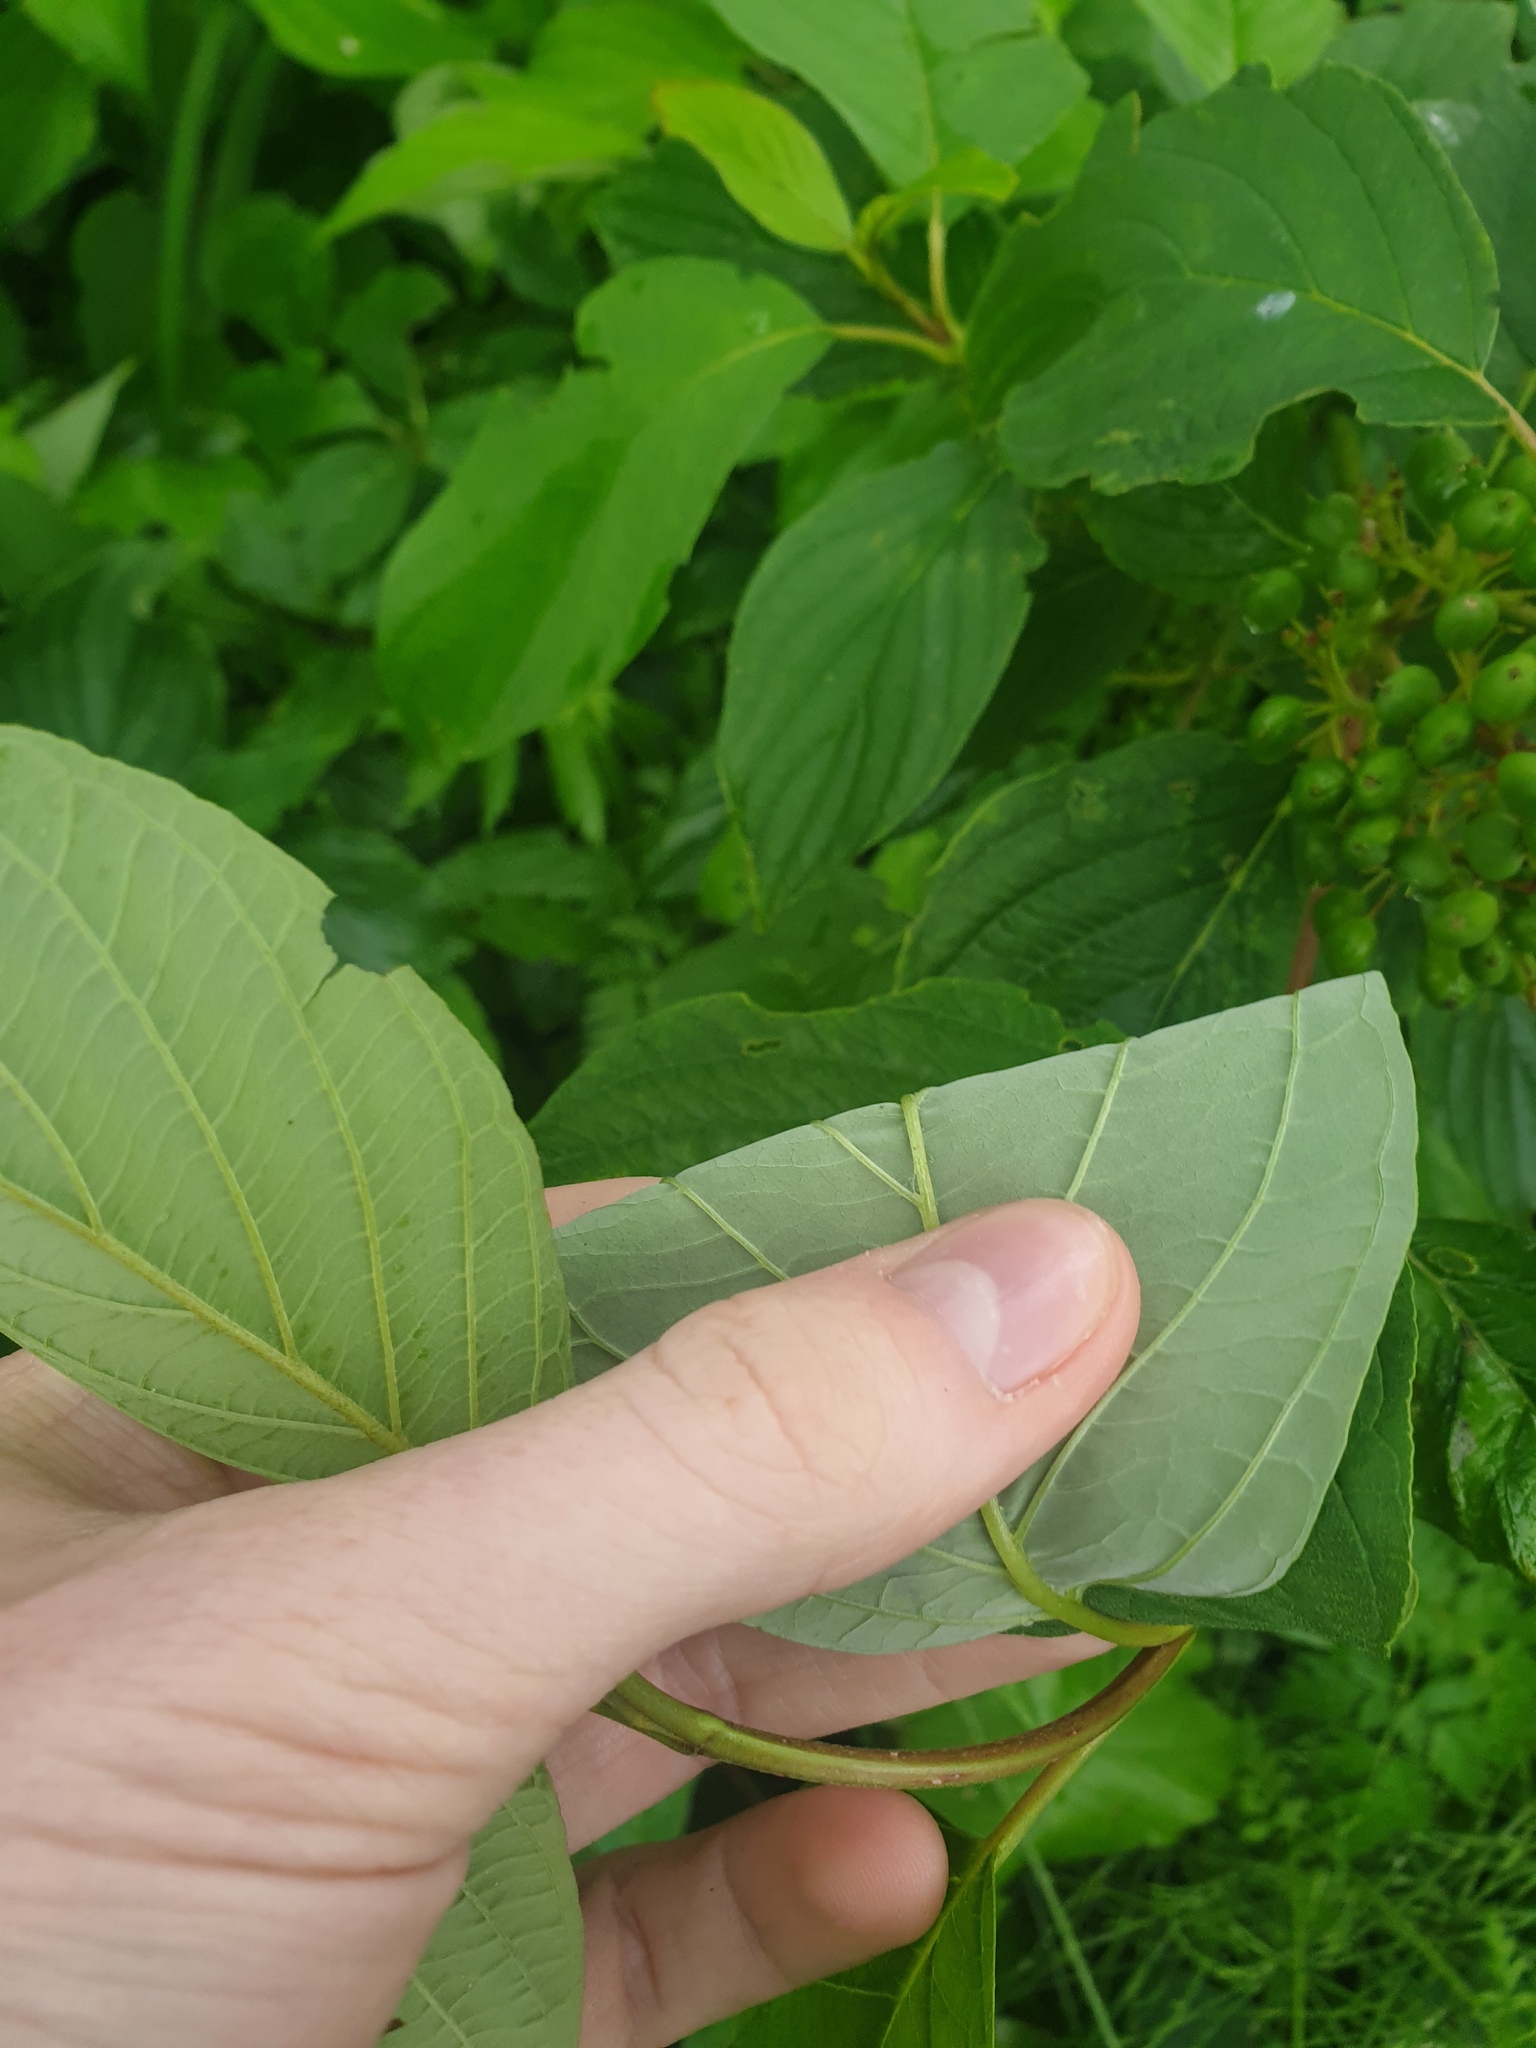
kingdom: Plantae
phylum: Tracheophyta
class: Magnoliopsida
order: Cornales
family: Cornaceae
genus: Cornus
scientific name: Cornus sericea
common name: Red-osier dogwood
